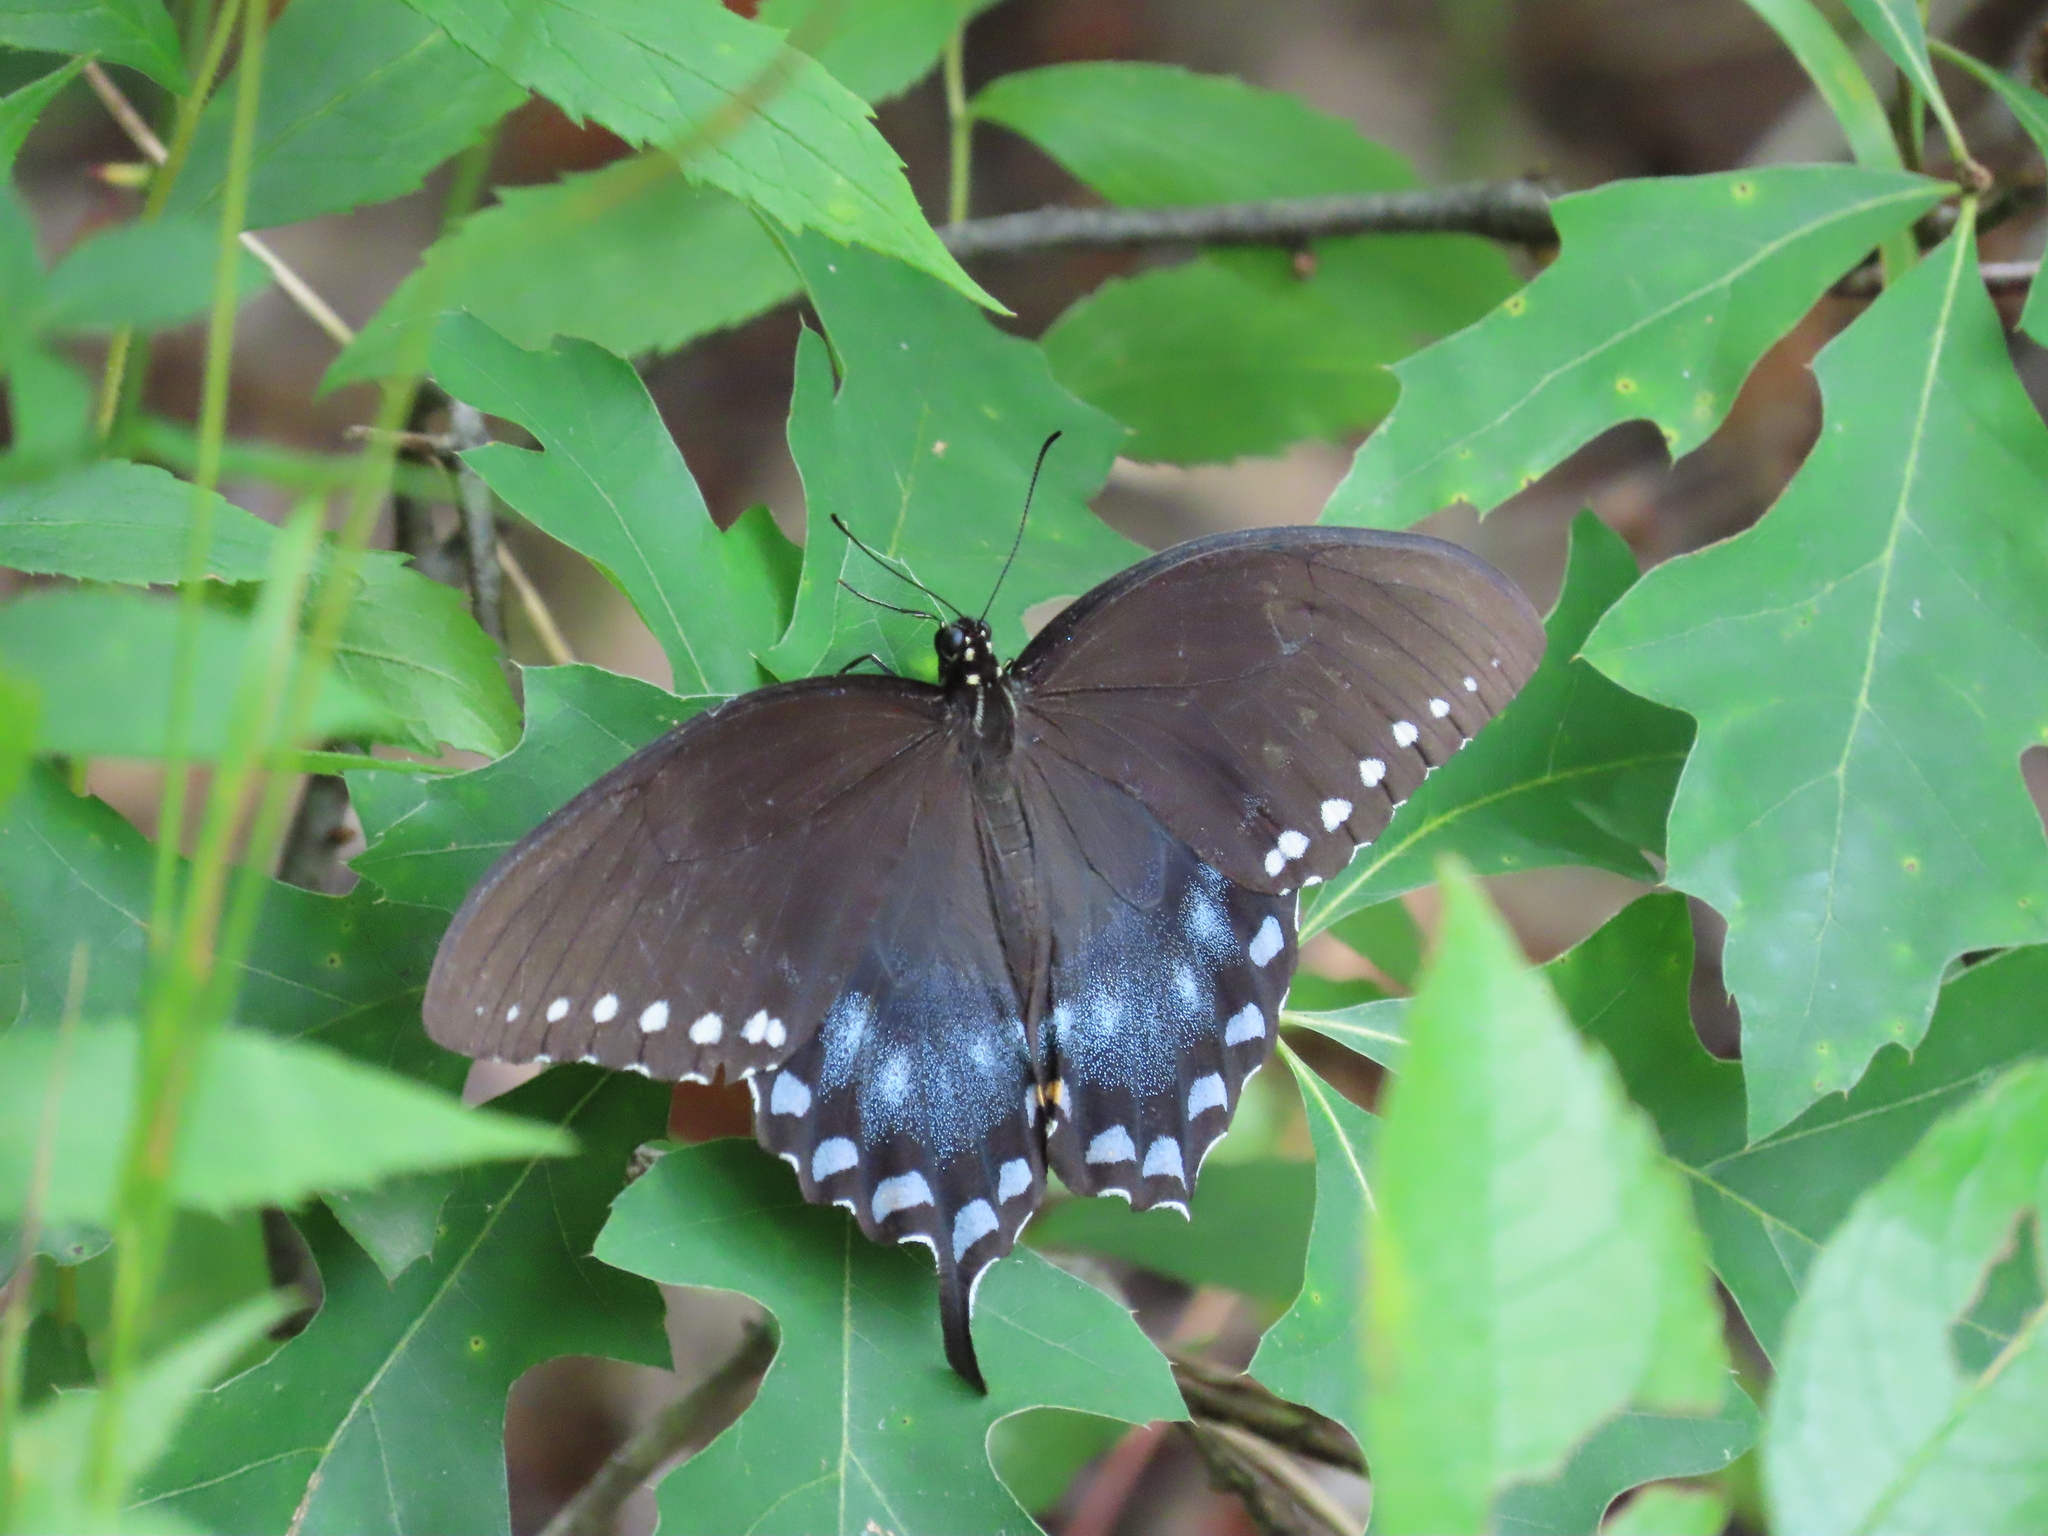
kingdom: Animalia
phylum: Arthropoda
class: Insecta
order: Lepidoptera
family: Papilionidae
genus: Papilio
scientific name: Papilio troilus
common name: Spicebush swallowtail
